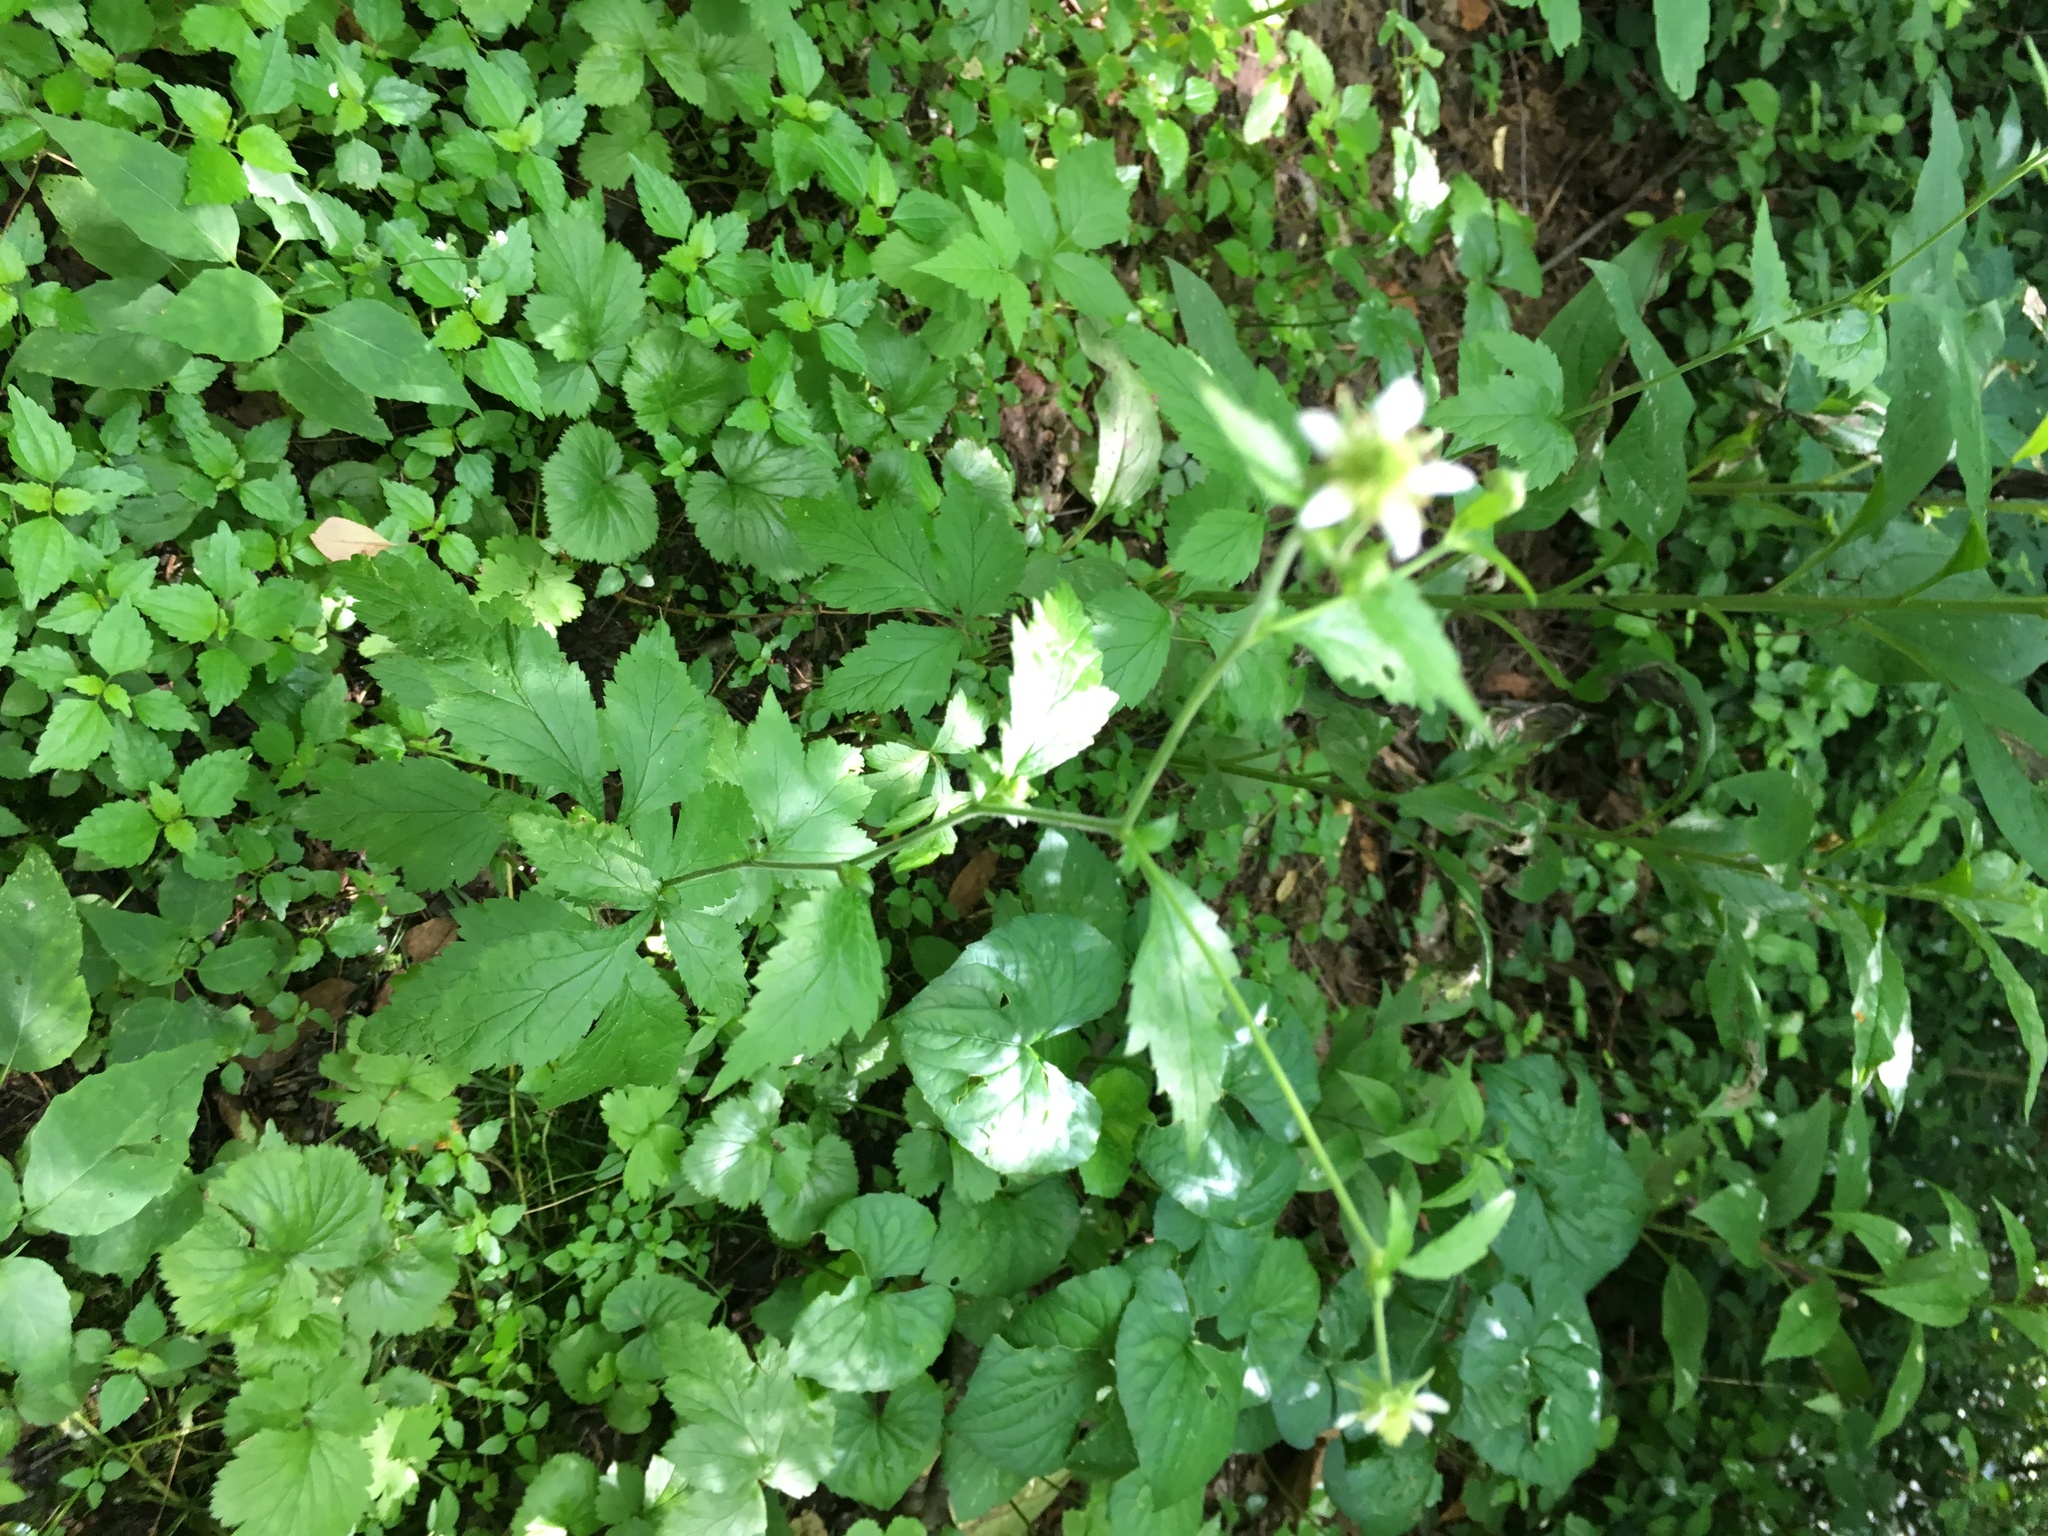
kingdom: Plantae
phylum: Tracheophyta
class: Magnoliopsida
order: Rosales
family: Rosaceae
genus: Geum
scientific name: Geum canadense
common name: White avens
